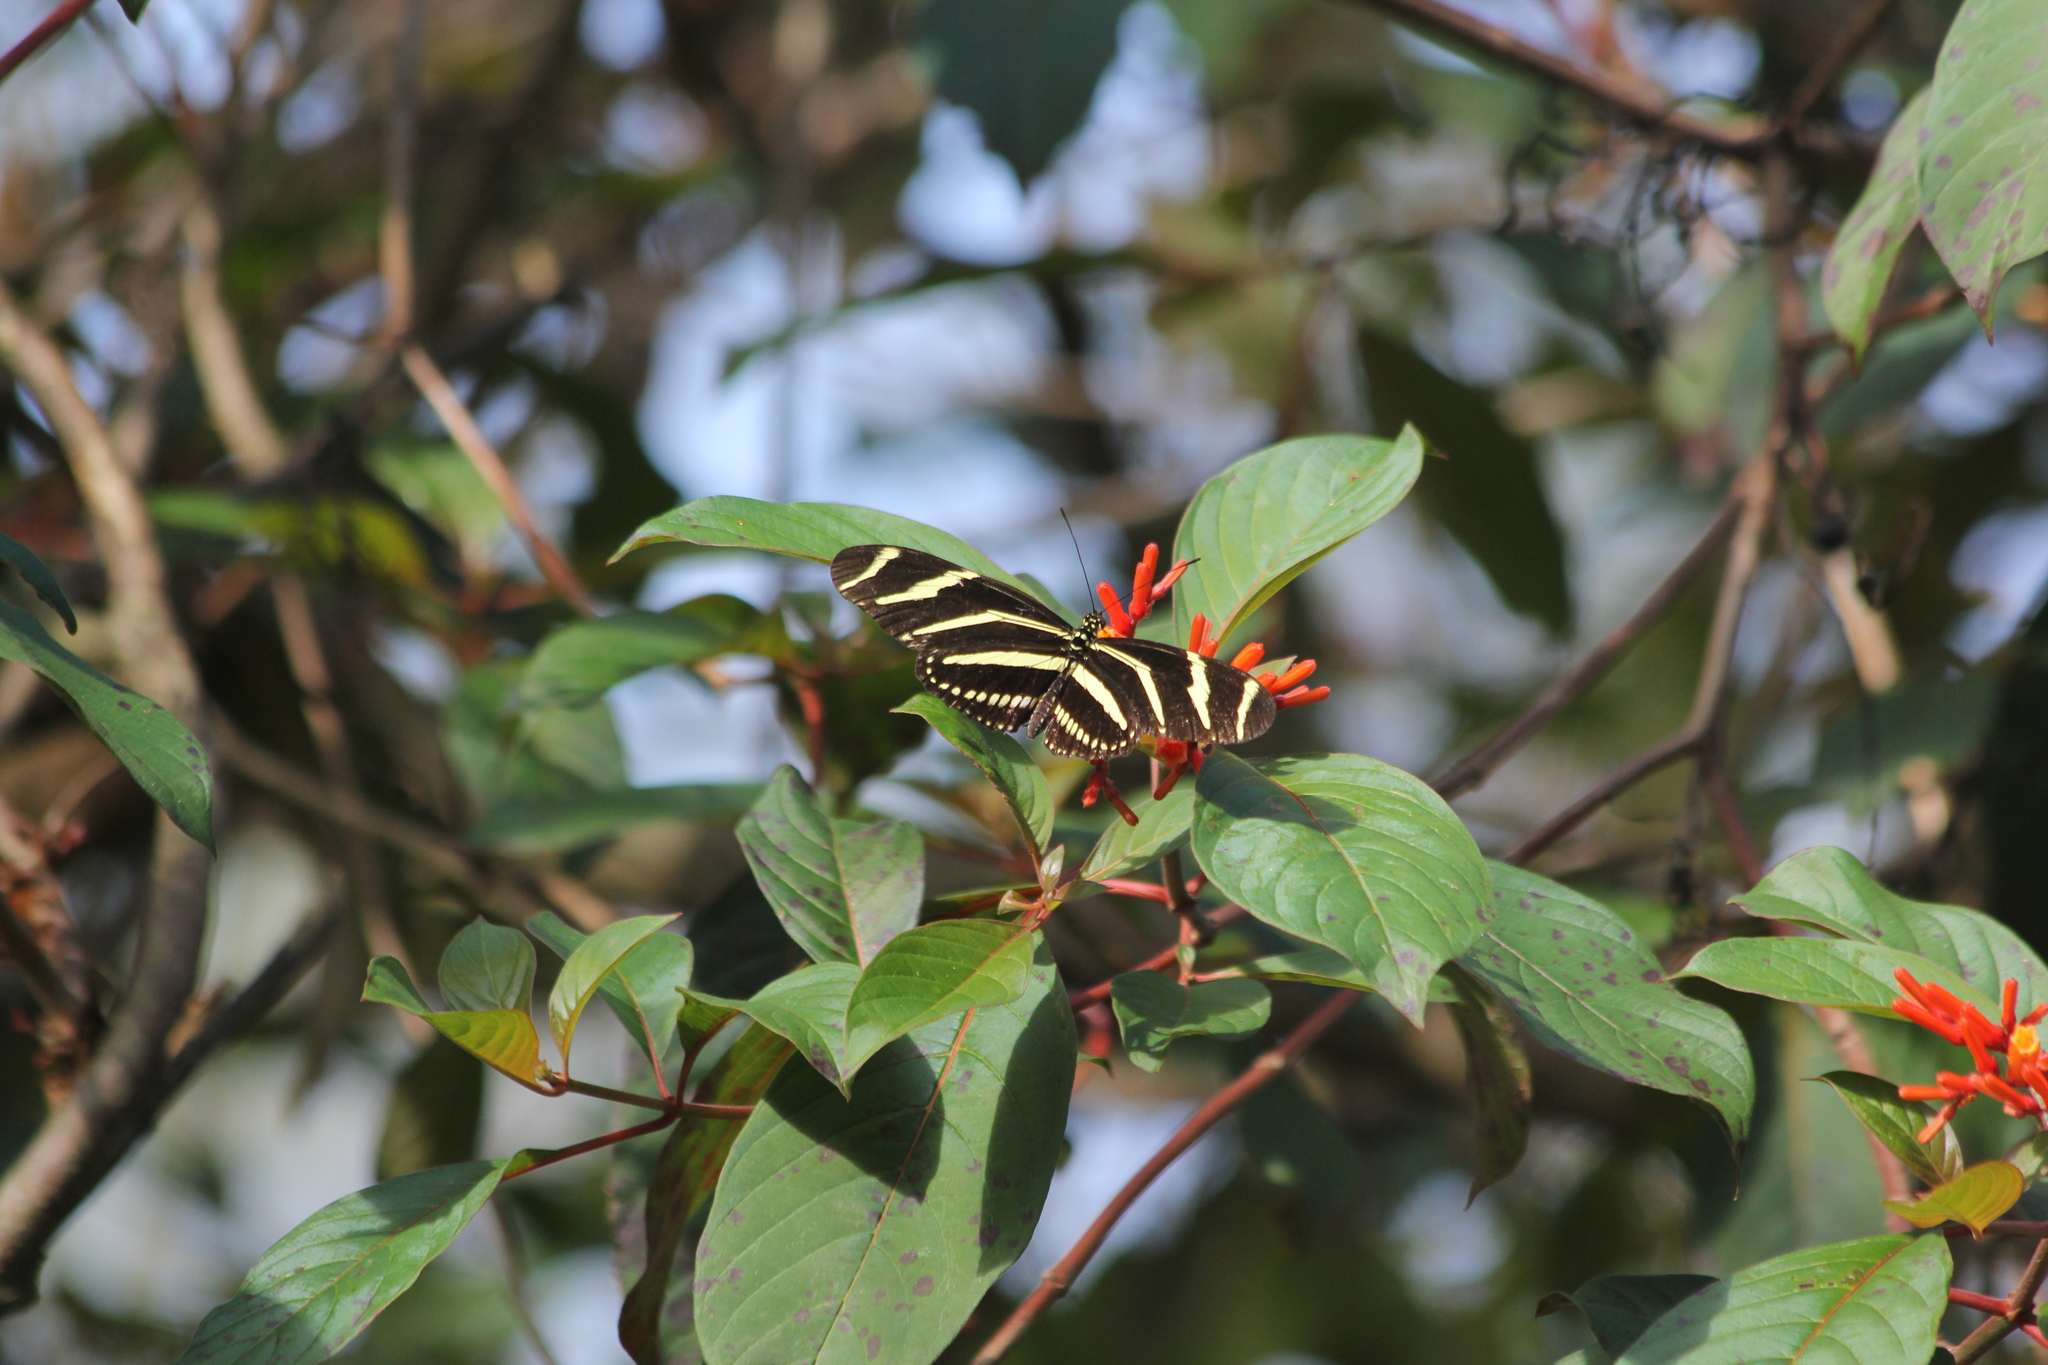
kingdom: Animalia
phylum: Arthropoda
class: Insecta
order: Lepidoptera
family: Nymphalidae
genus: Heliconius
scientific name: Heliconius charithonia
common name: Zebra long wing
